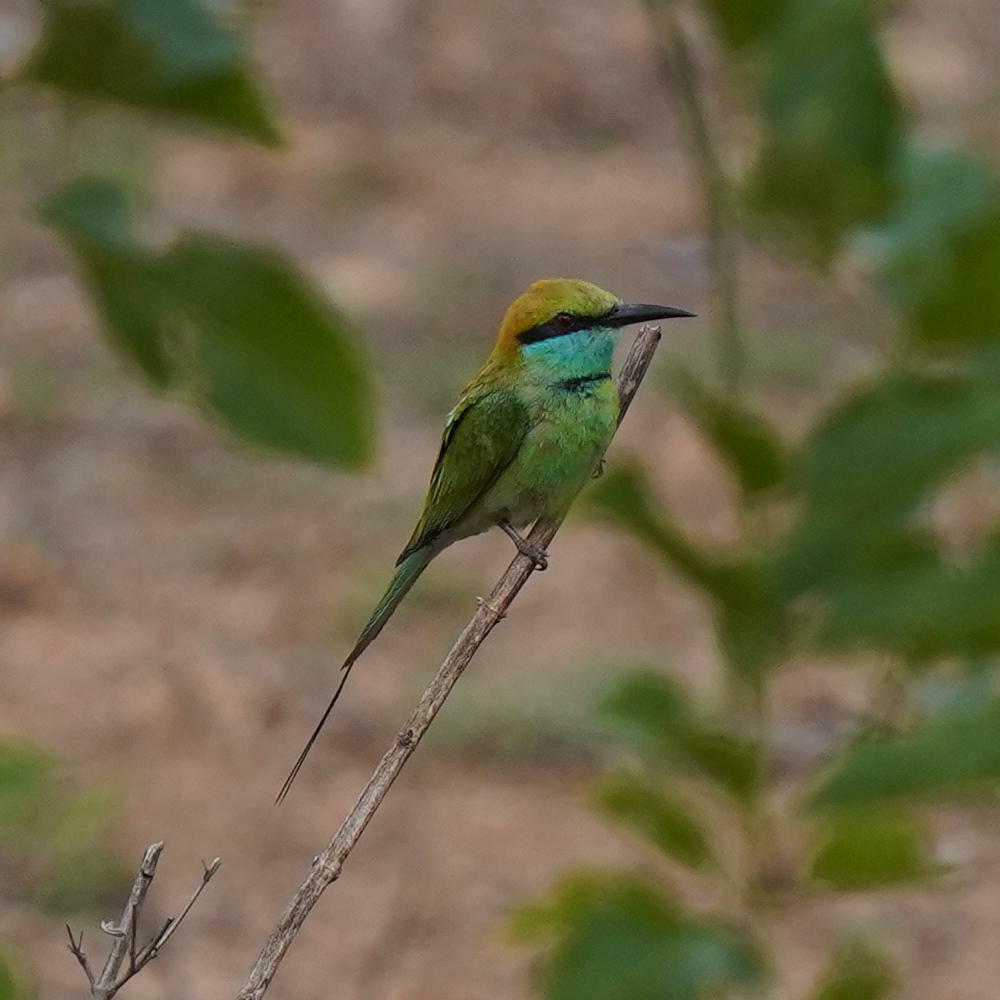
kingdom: Animalia
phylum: Chordata
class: Aves
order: Coraciiformes
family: Meropidae
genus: Merops
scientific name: Merops orientalis
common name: Green bee-eater
